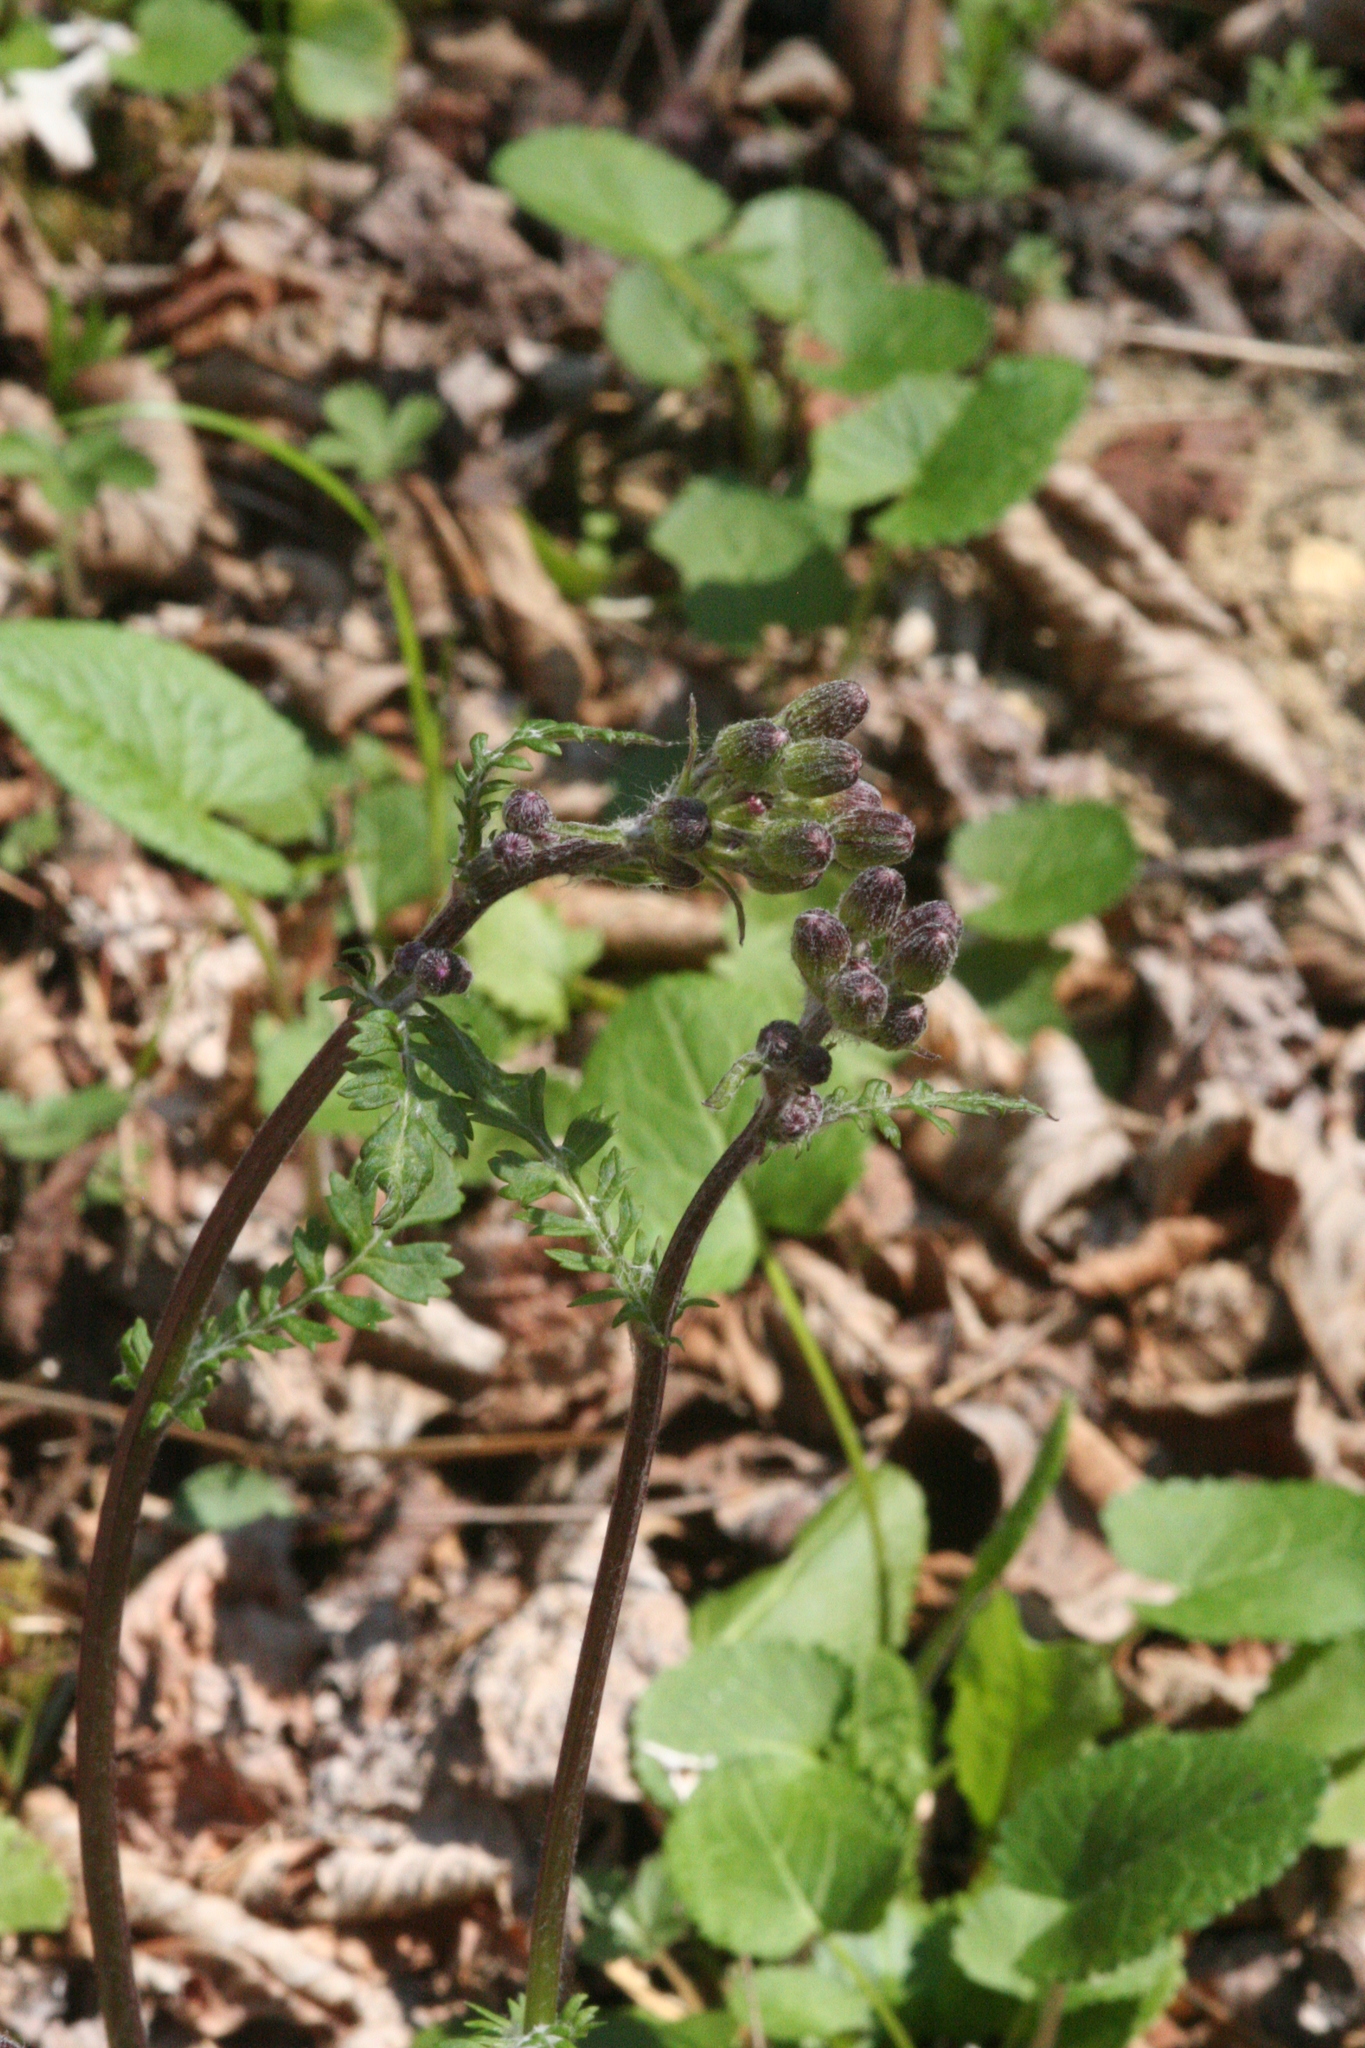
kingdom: Plantae
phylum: Tracheophyta
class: Magnoliopsida
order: Lamiales
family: Orobanchaceae
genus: Pedicularis
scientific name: Pedicularis canadensis
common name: Early lousewort
